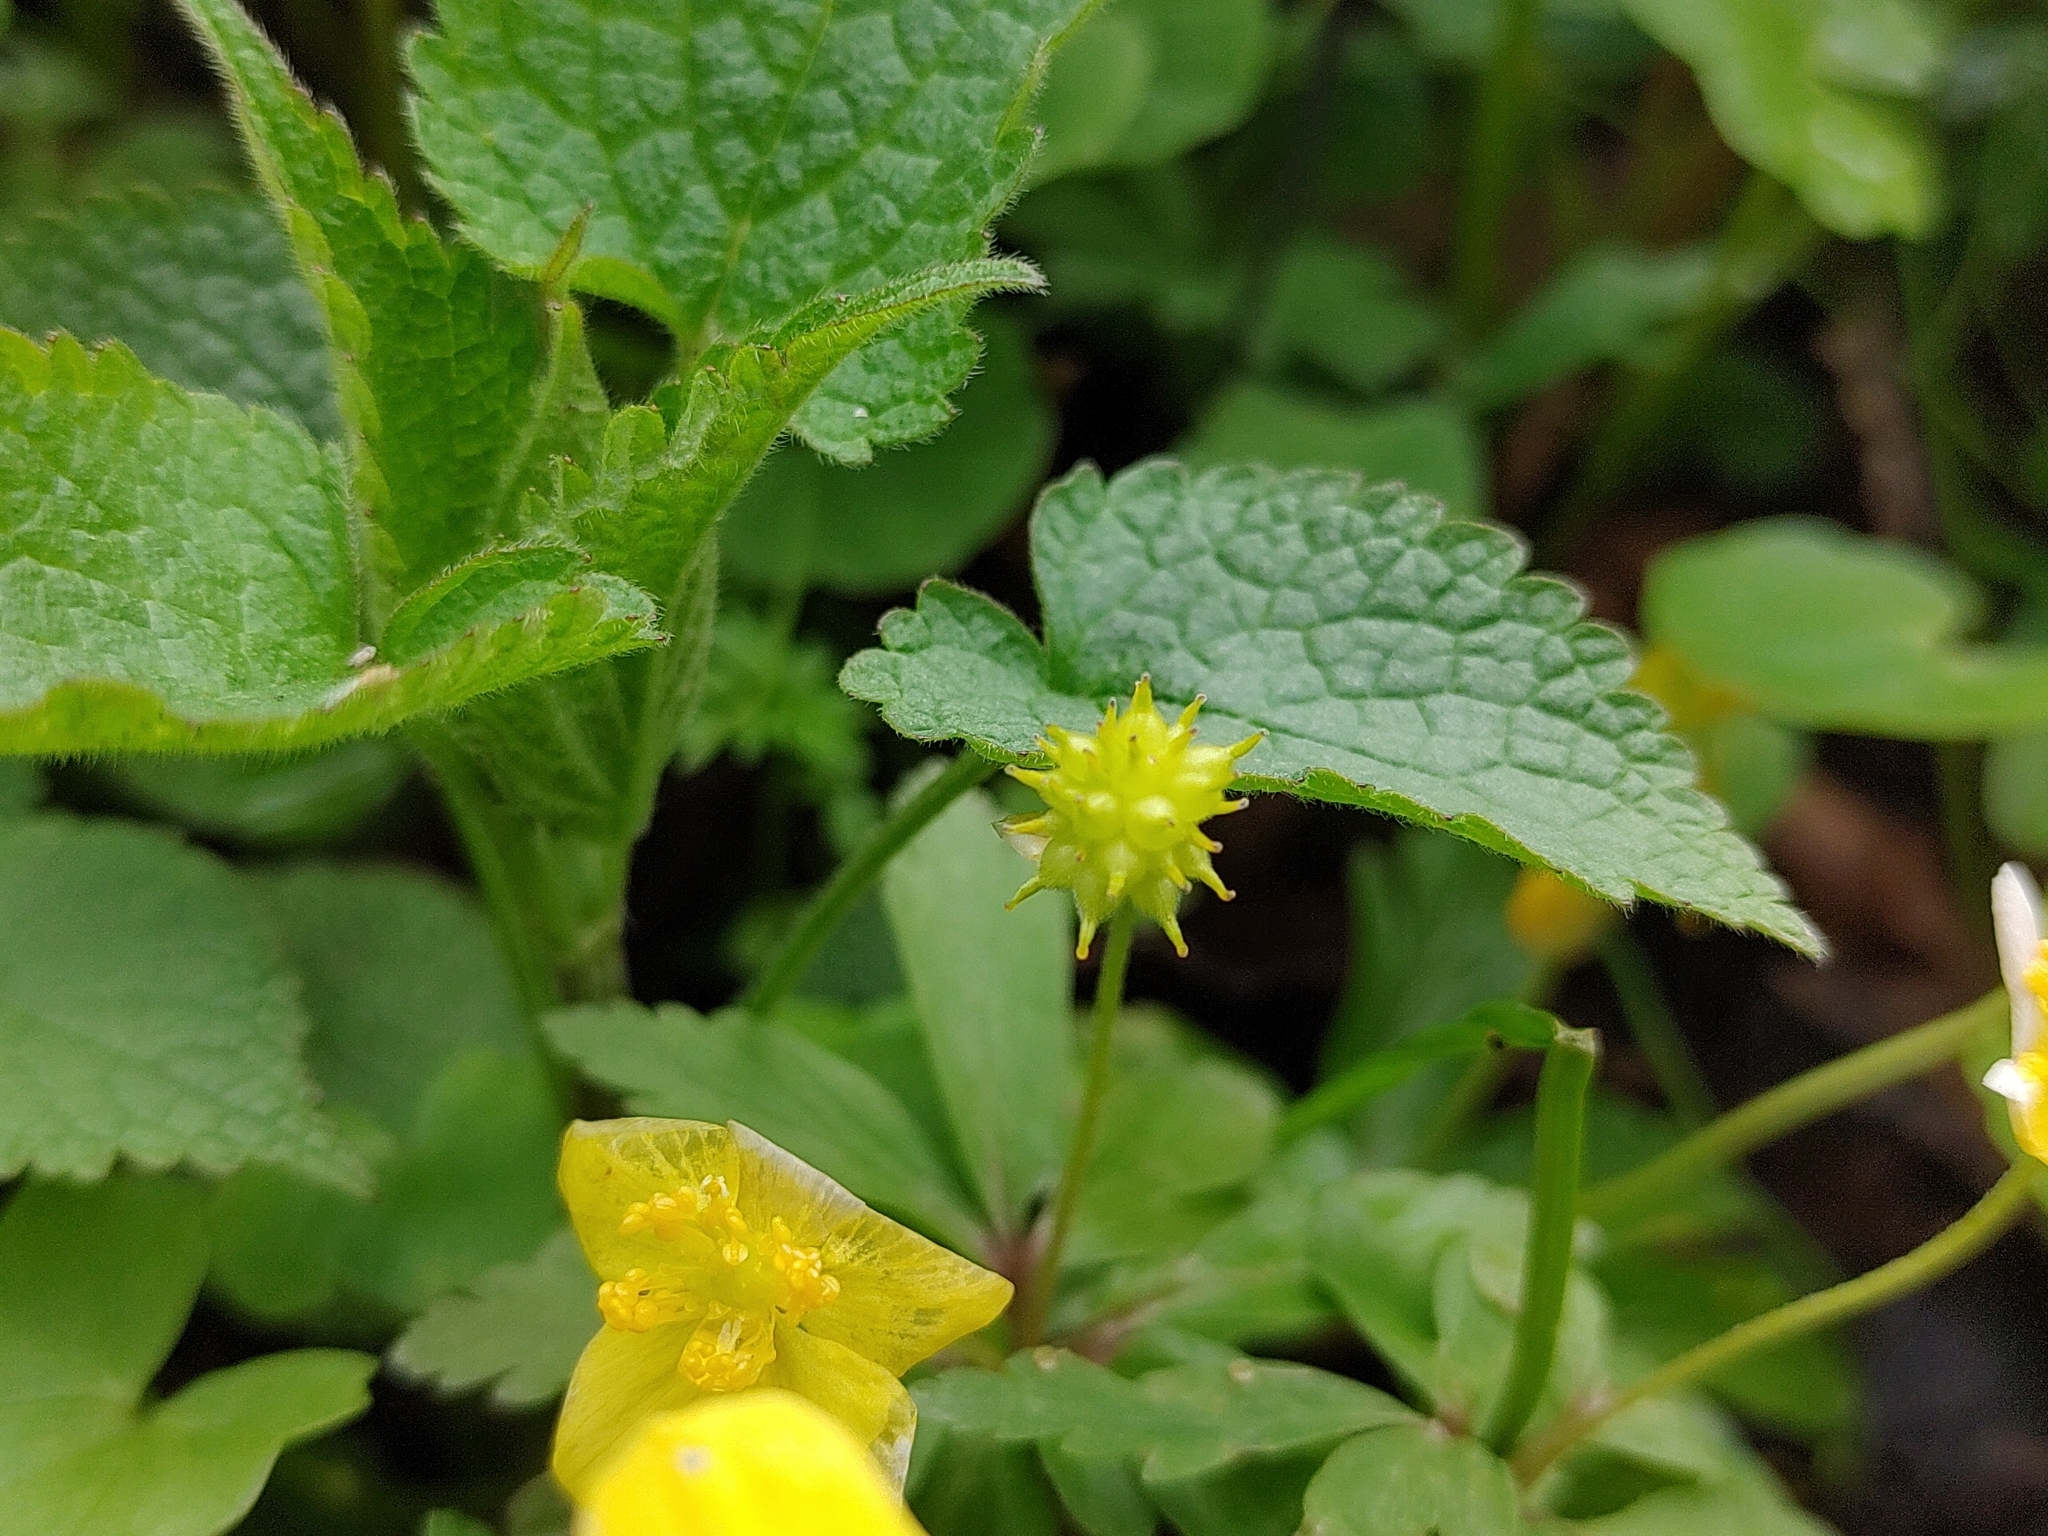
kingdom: Plantae
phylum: Tracheophyta
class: Magnoliopsida
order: Ranunculales
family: Ranunculaceae
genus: Anemone
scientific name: Anemone ranunculoides
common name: Yellow anemone
